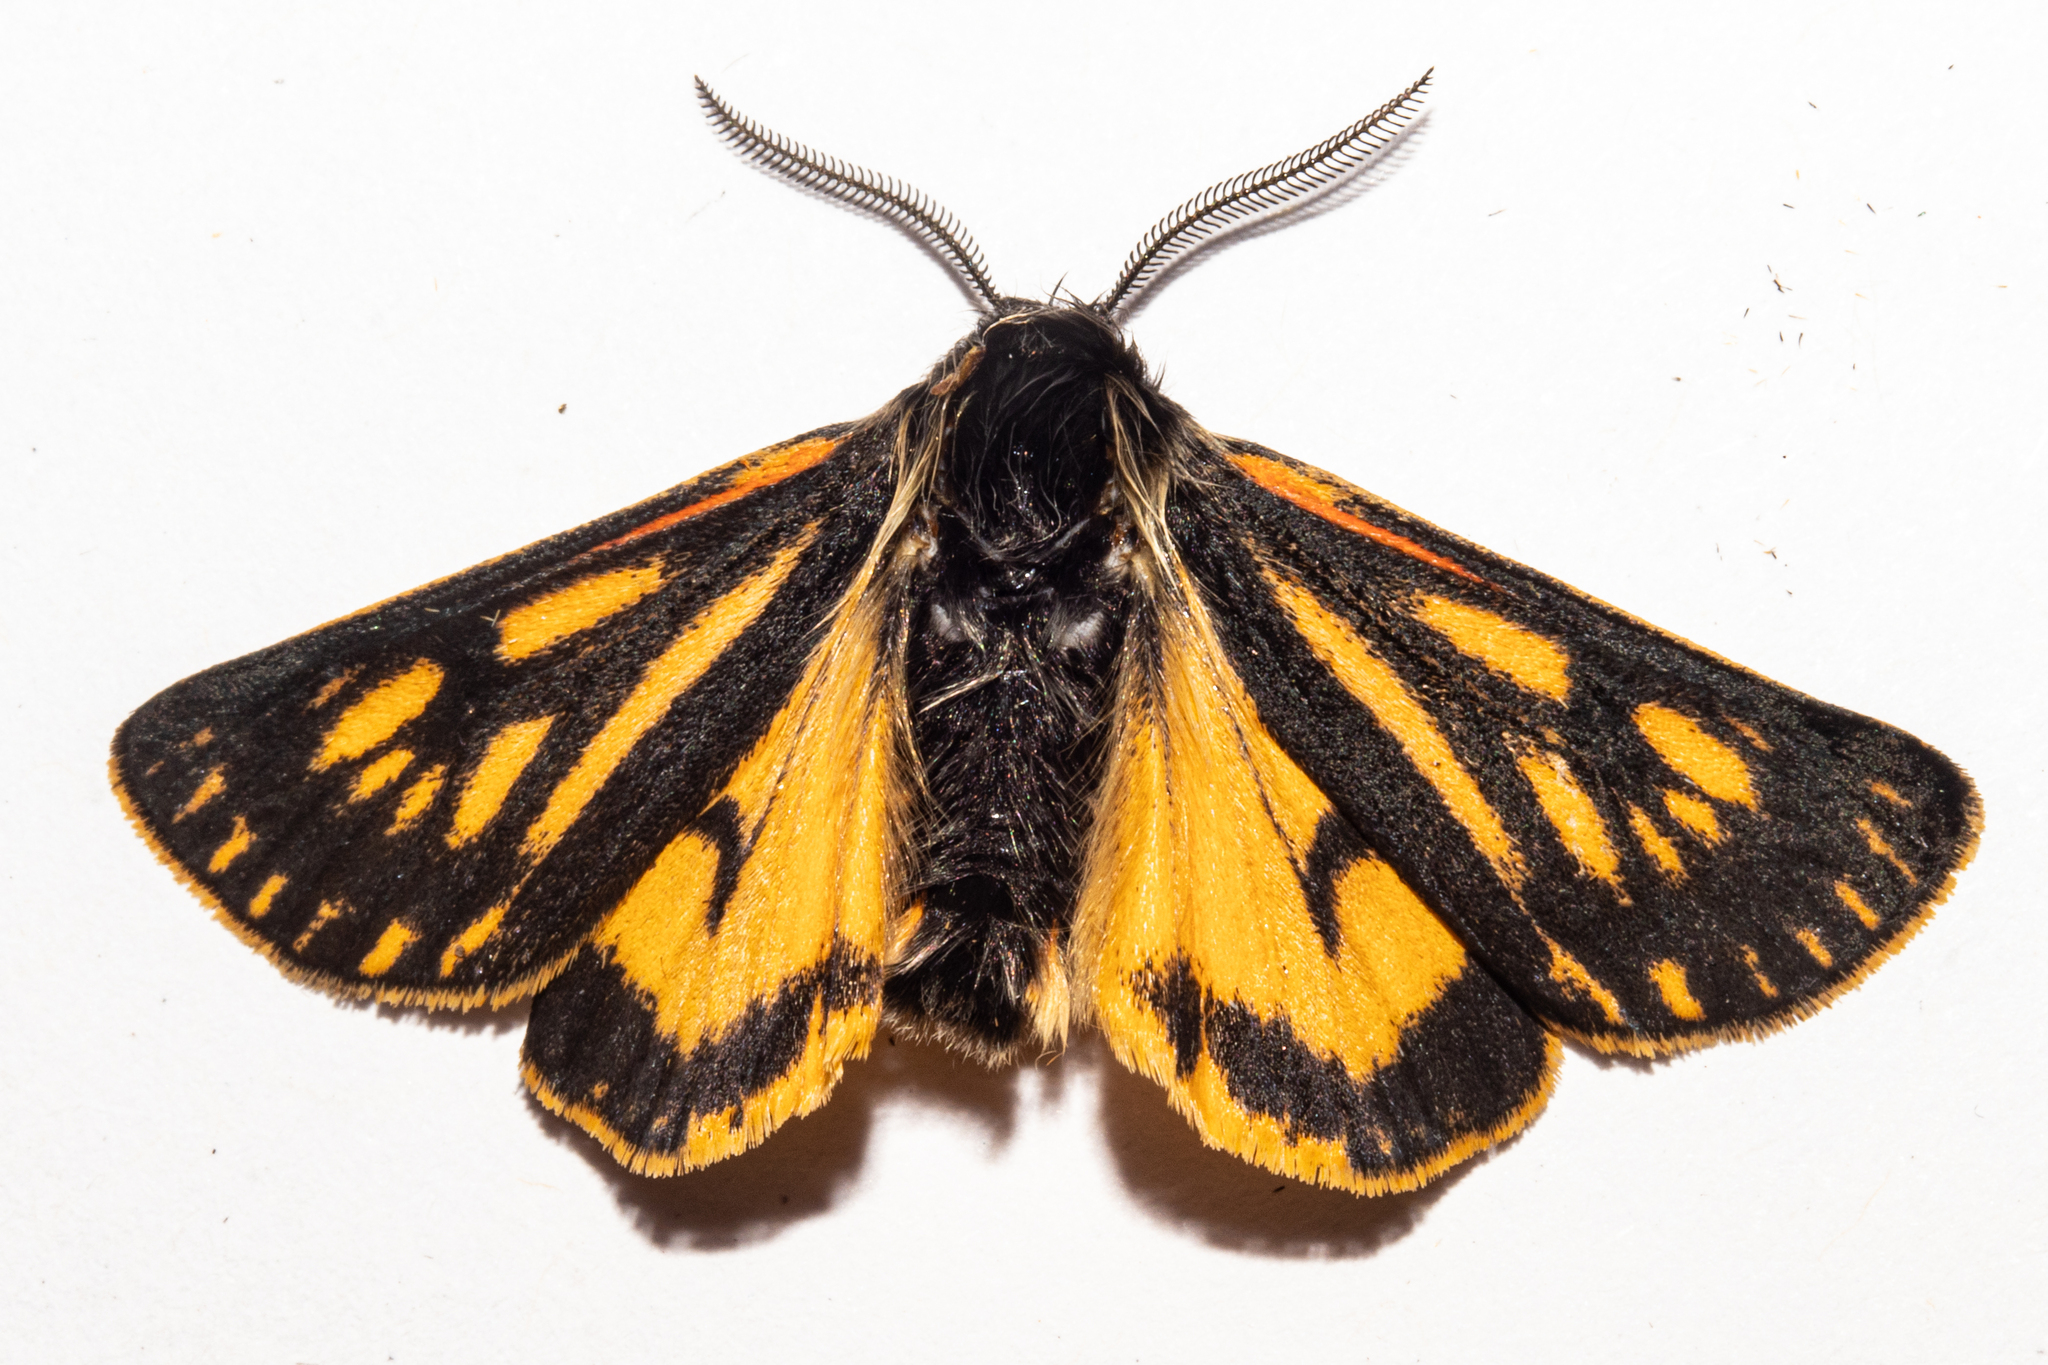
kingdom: Animalia
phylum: Arthropoda
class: Insecta
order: Lepidoptera
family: Erebidae
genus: Metacrias
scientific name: Metacrias erichrysa
